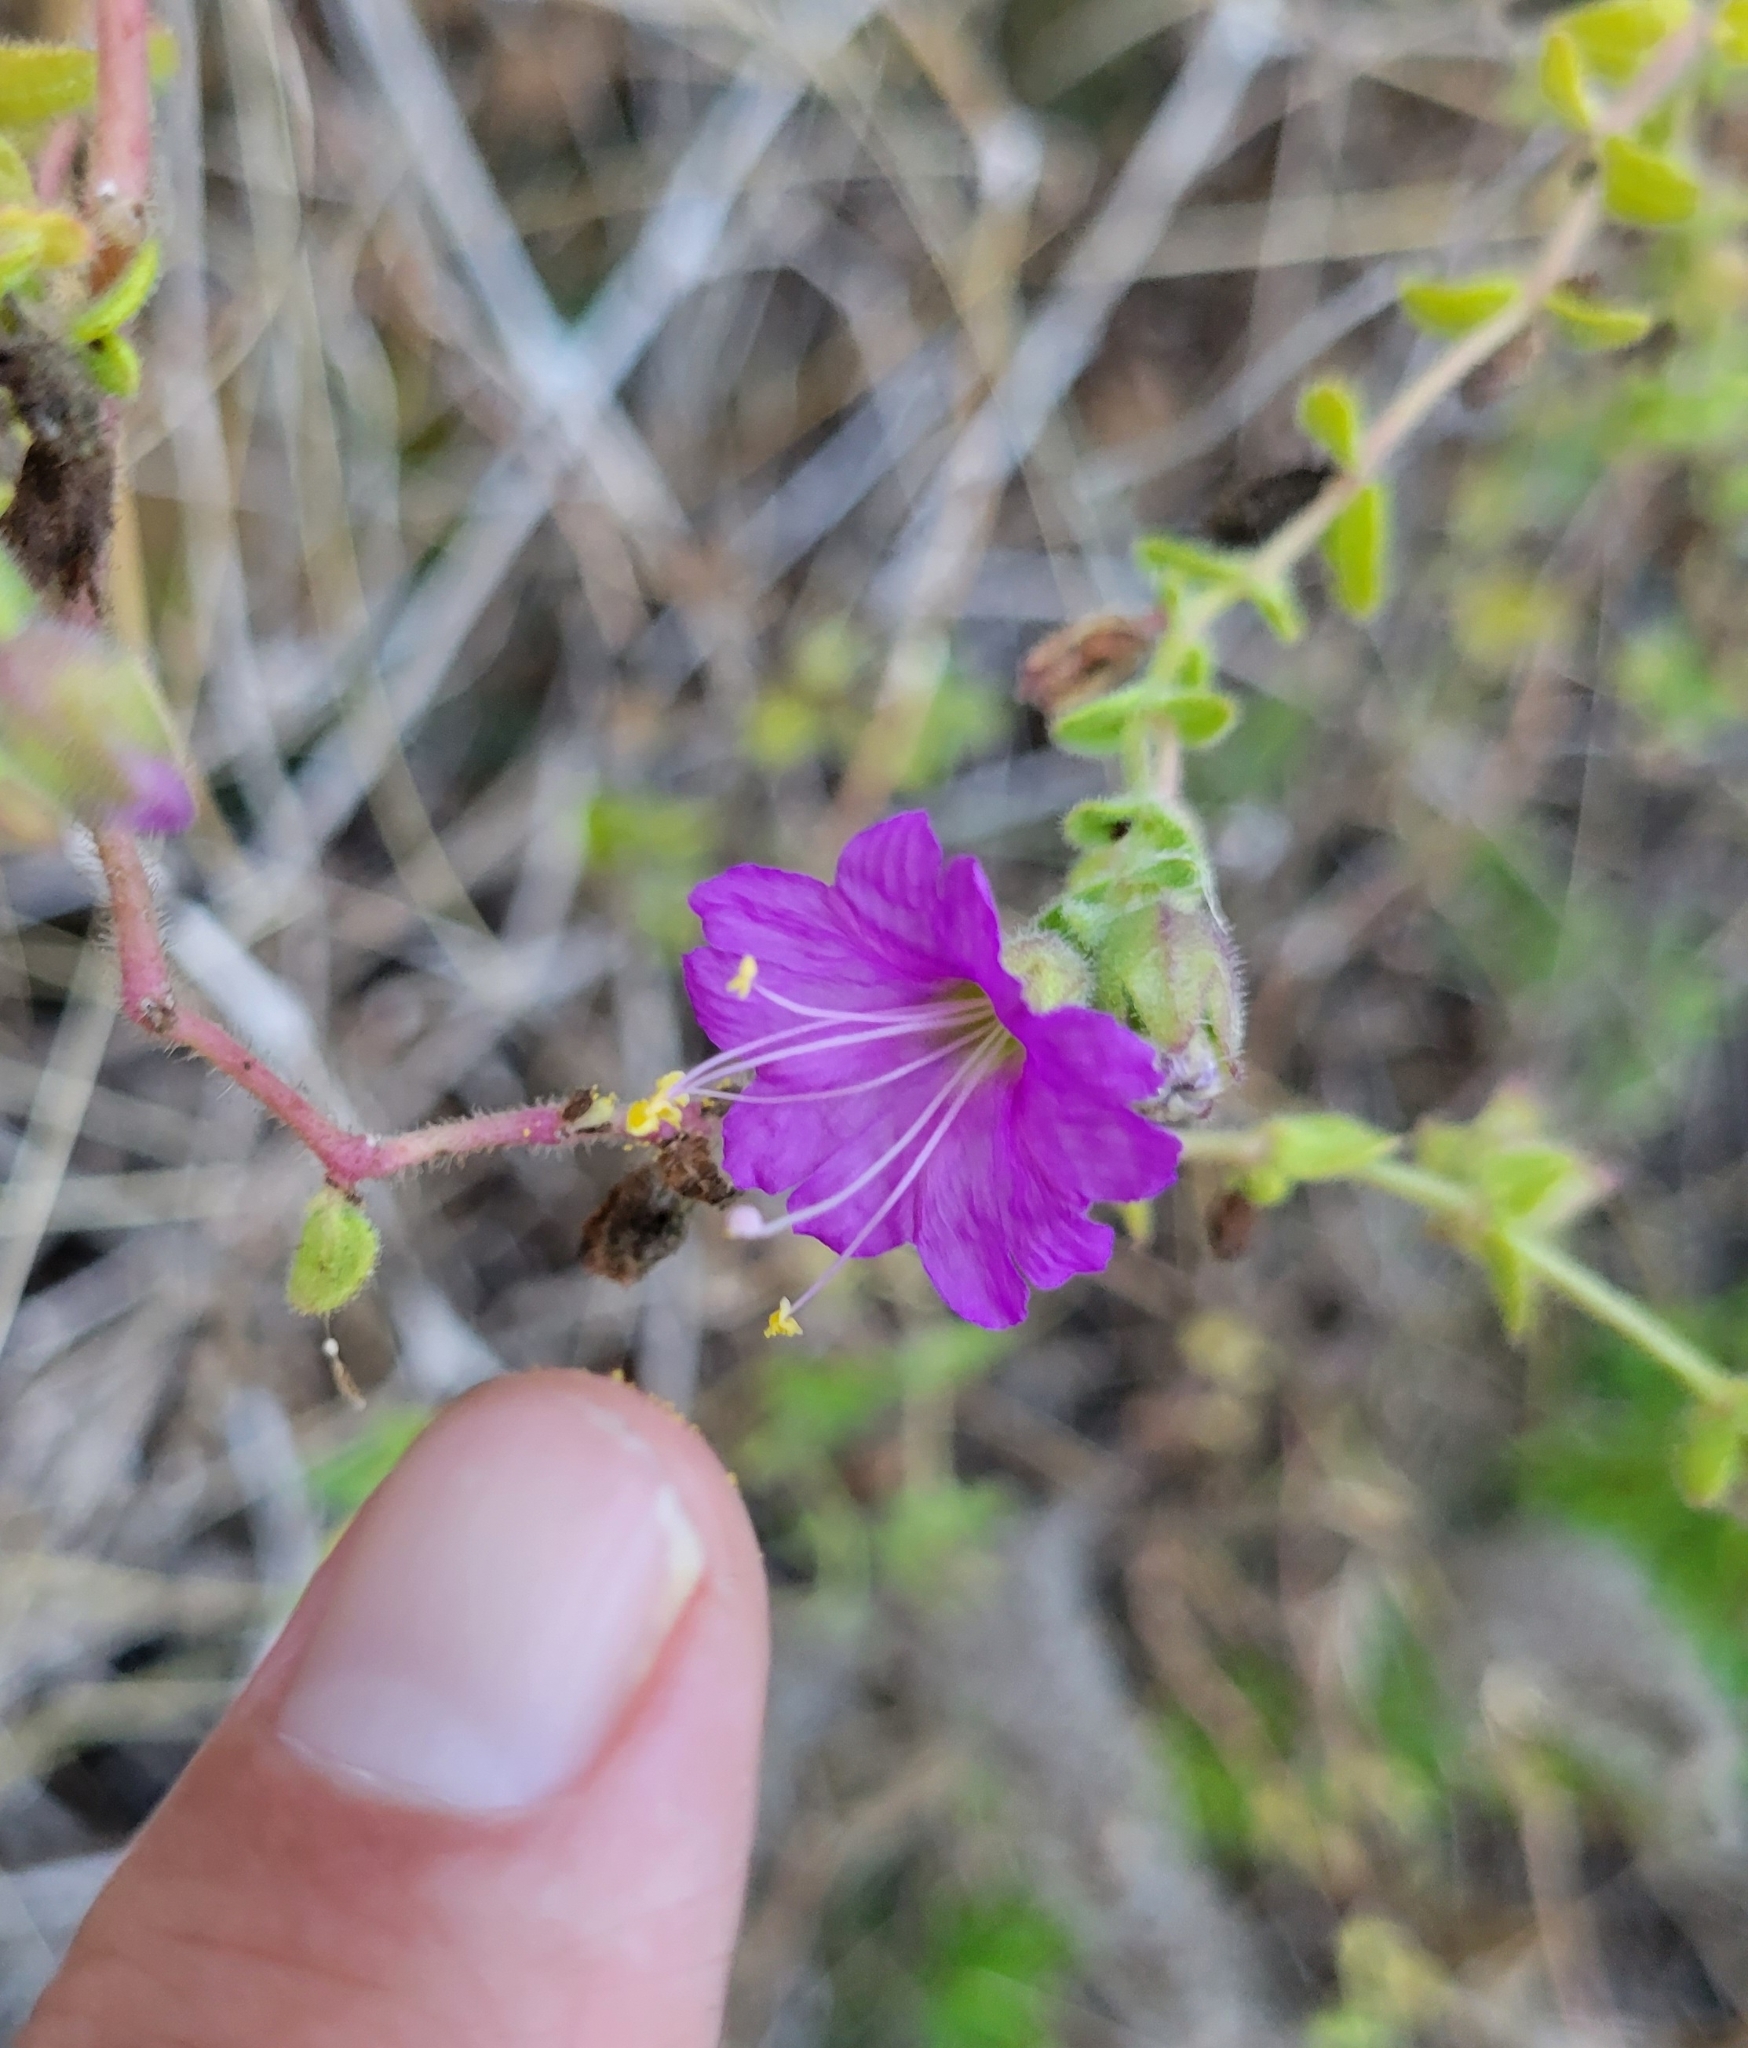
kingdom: Plantae
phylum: Tracheophyta
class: Magnoliopsida
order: Caryophyllales
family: Nyctaginaceae
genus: Mirabilis
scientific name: Mirabilis laevis
